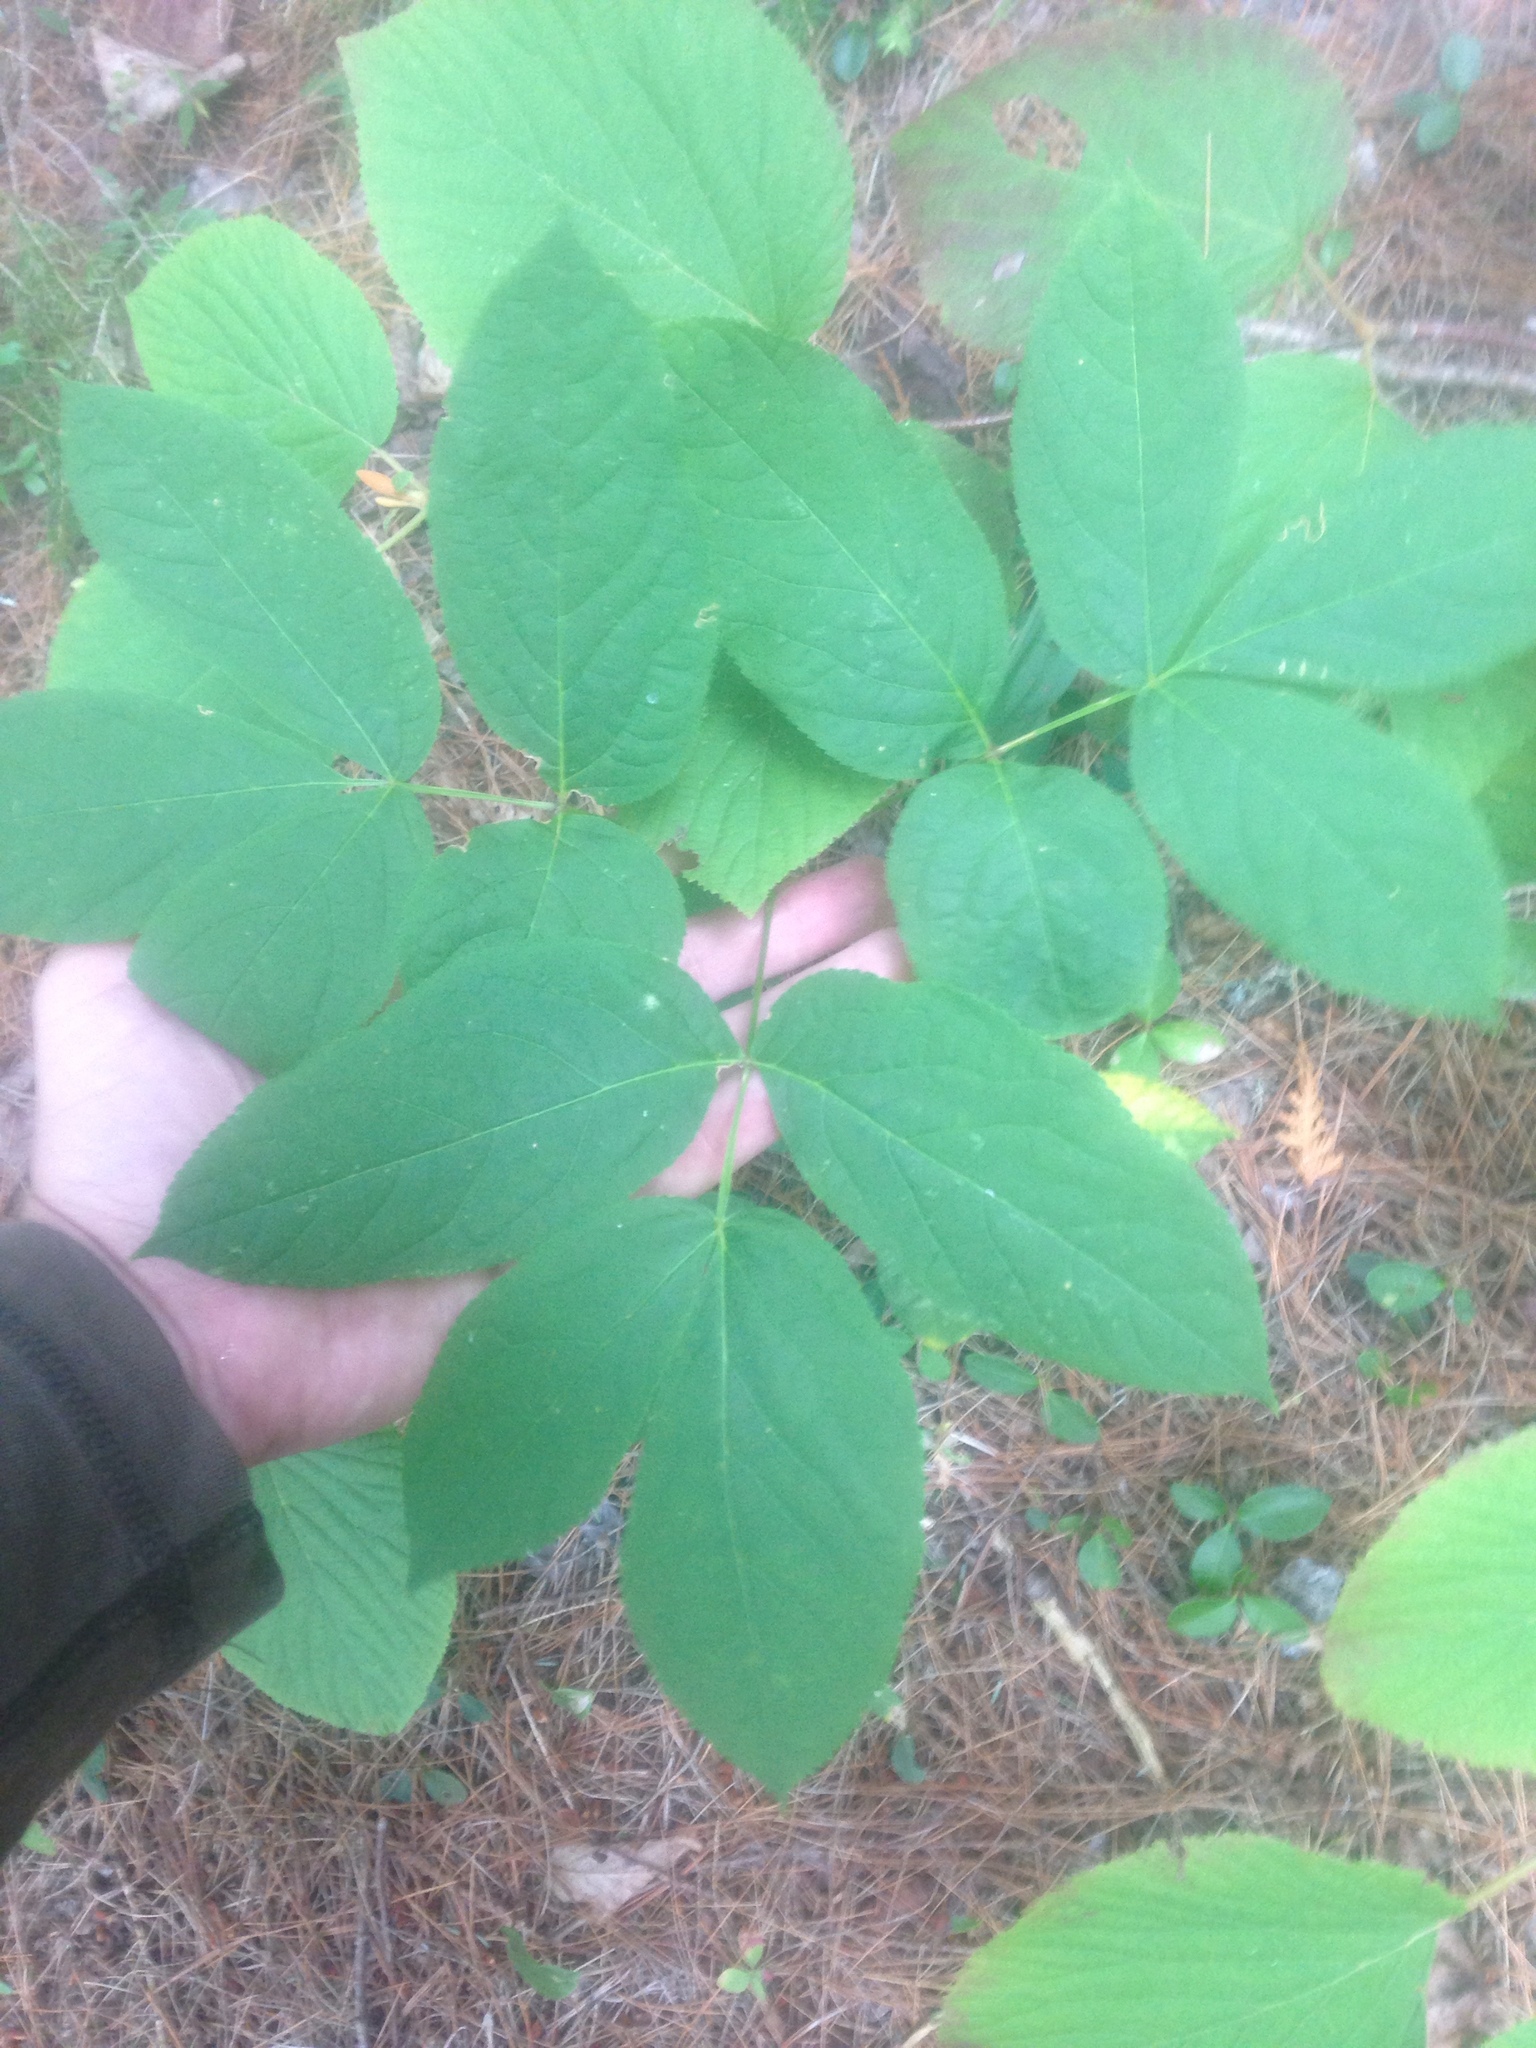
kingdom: Plantae
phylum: Tracheophyta
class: Magnoliopsida
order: Apiales
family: Araliaceae
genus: Aralia
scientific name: Aralia nudicaulis
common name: Wild sarsaparilla
